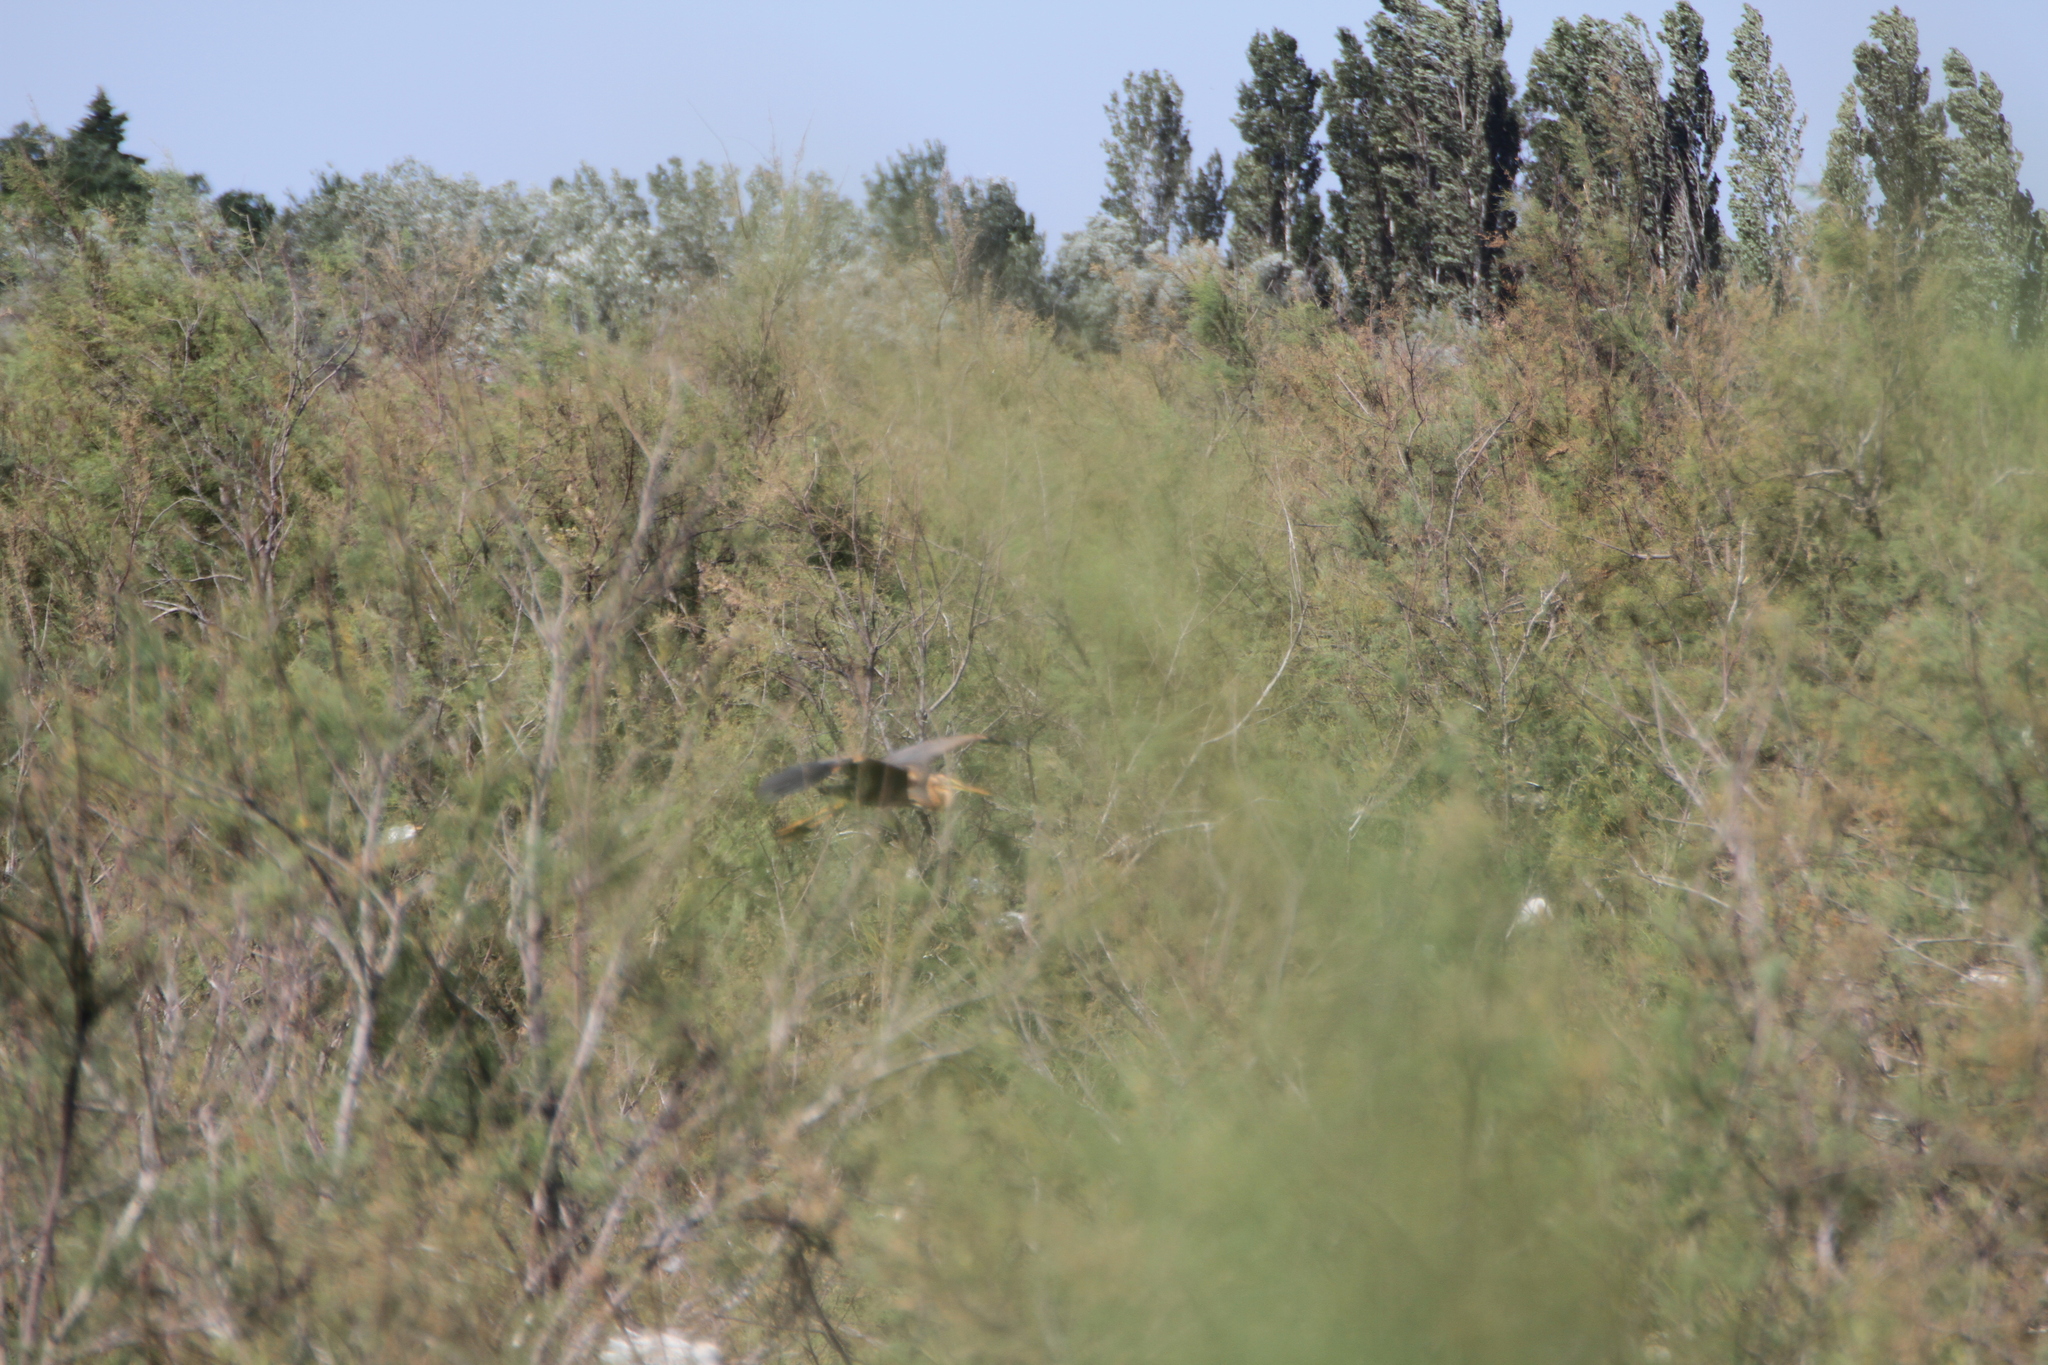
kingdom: Animalia
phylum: Chordata
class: Aves
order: Pelecaniformes
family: Ardeidae
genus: Ardea
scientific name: Ardea purpurea
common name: Purple heron
